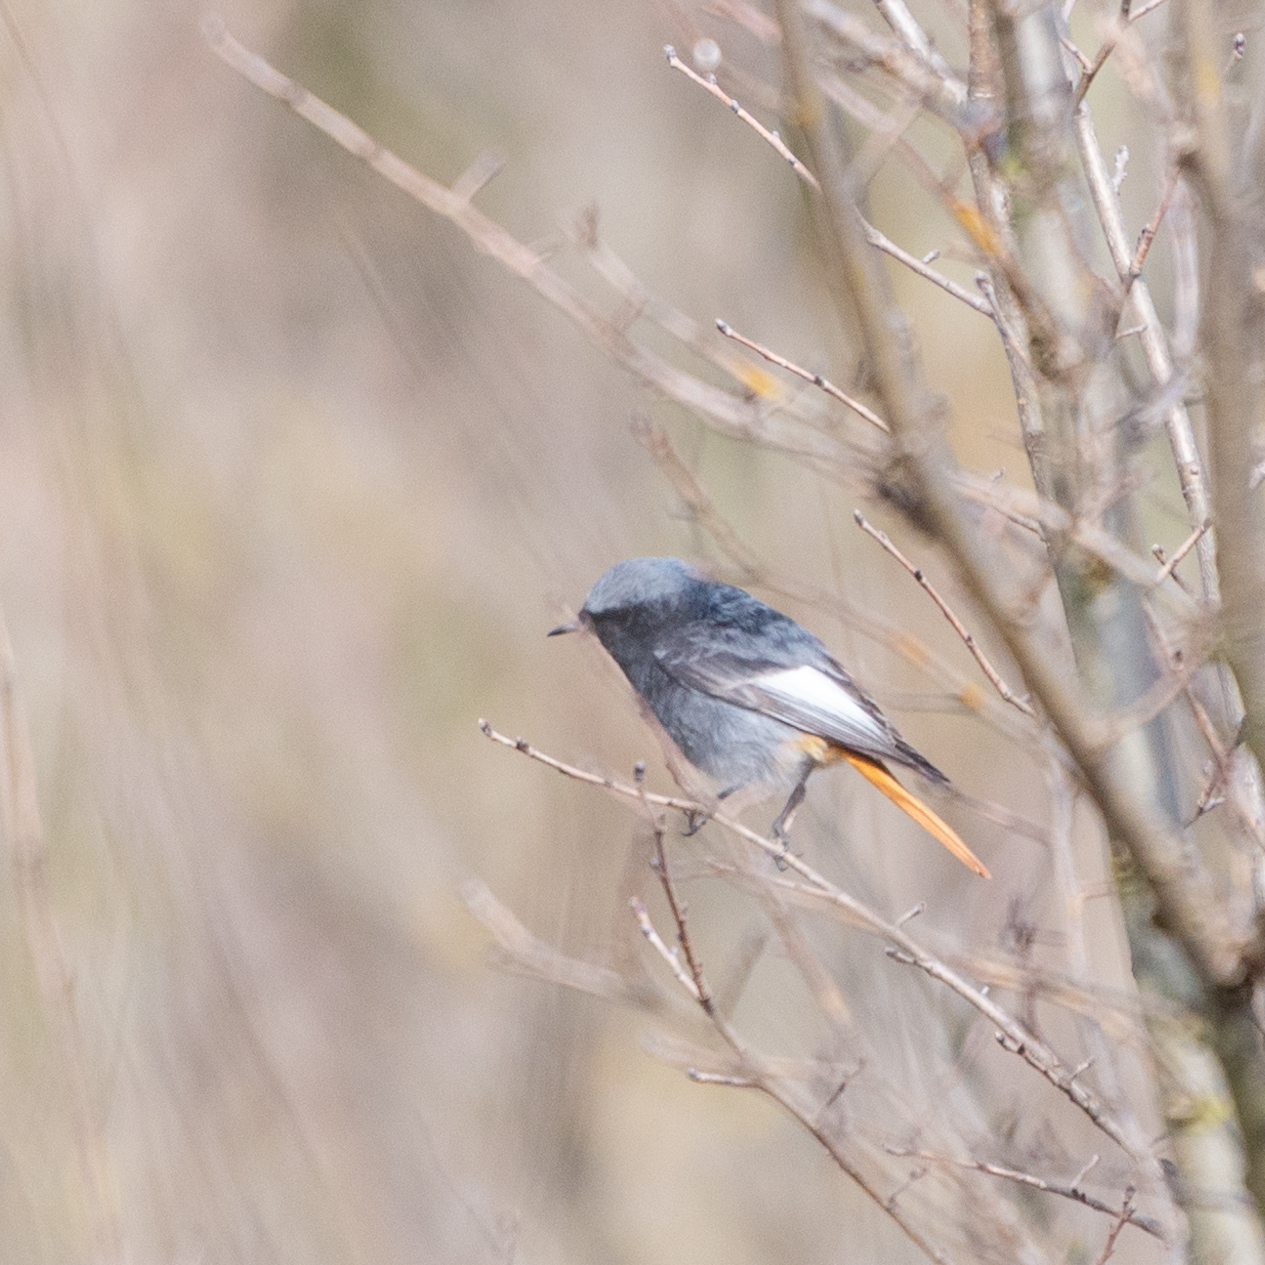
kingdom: Animalia
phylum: Chordata
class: Aves
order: Passeriformes
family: Muscicapidae
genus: Phoenicurus
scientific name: Phoenicurus ochruros
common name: Black redstart
